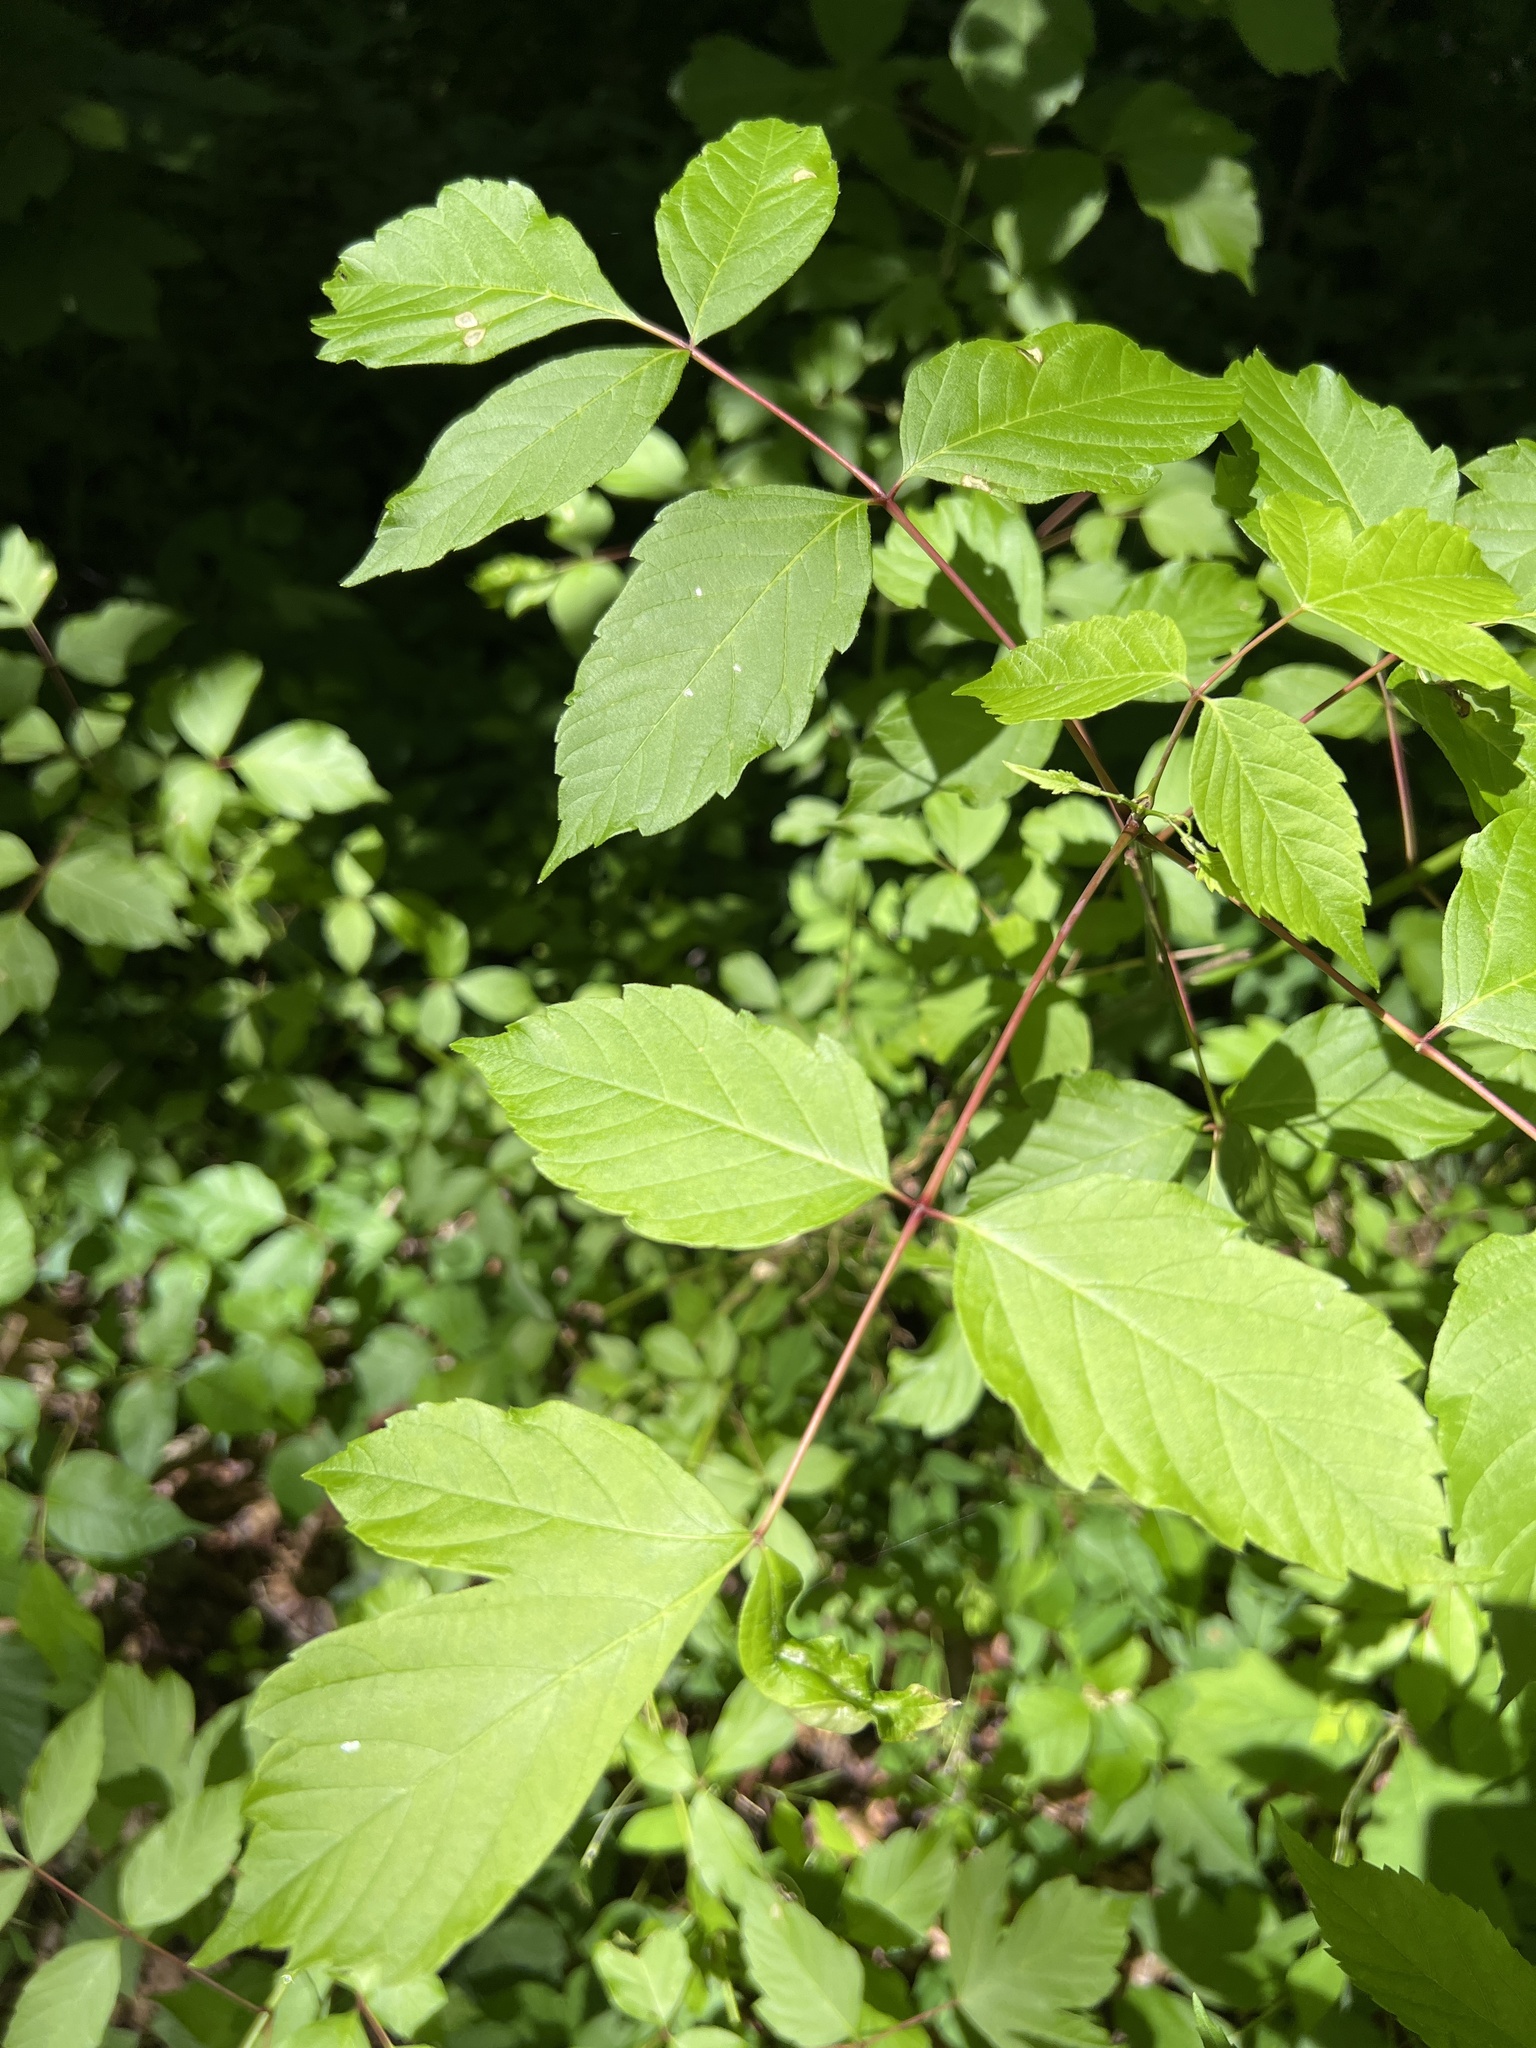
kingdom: Plantae
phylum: Tracheophyta
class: Magnoliopsida
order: Sapindales
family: Sapindaceae
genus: Acer
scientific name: Acer negundo
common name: Ashleaf maple
